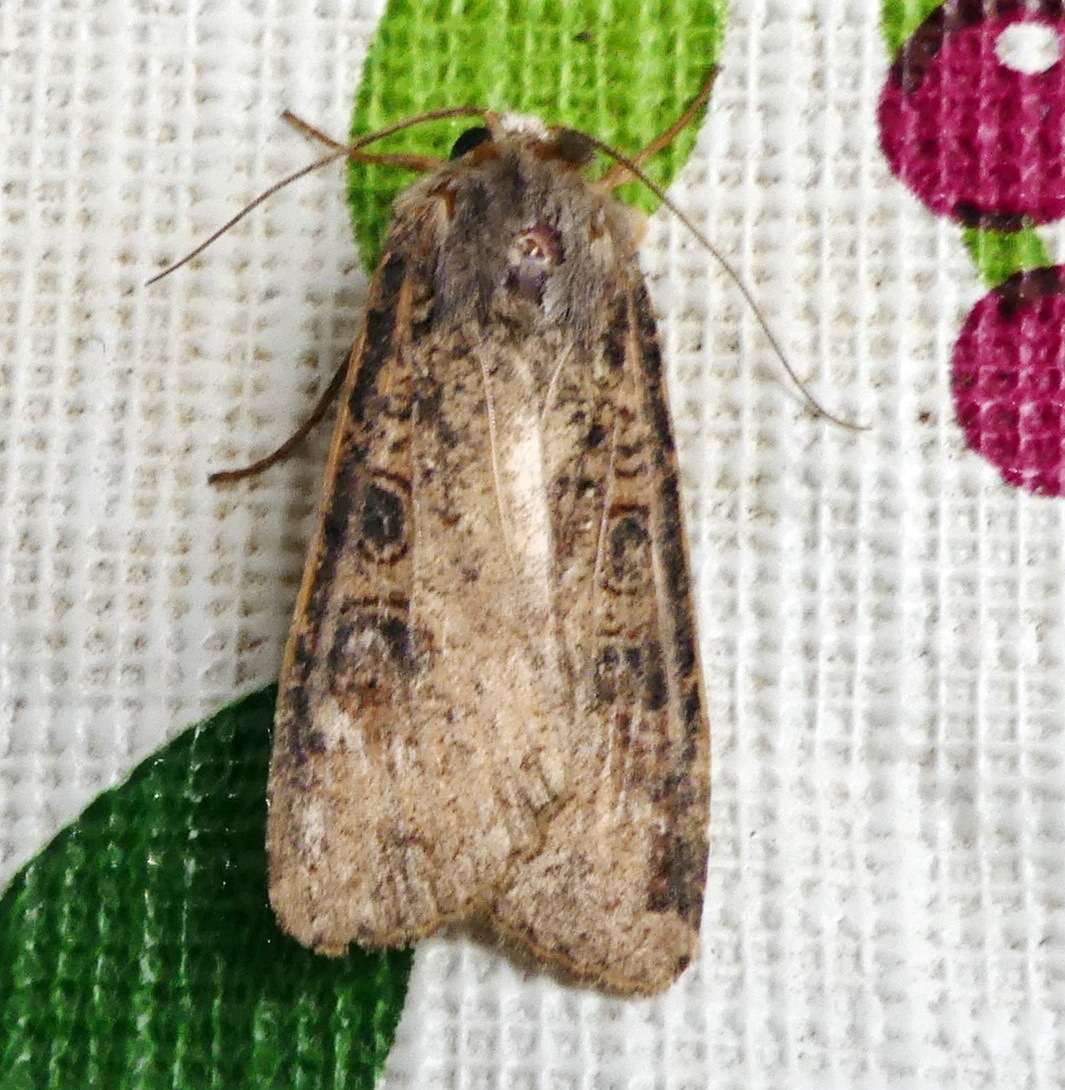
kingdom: Animalia
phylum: Arthropoda
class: Insecta
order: Lepidoptera
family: Noctuidae
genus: Peridroma
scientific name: Peridroma saucia
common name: Pearly underwing
